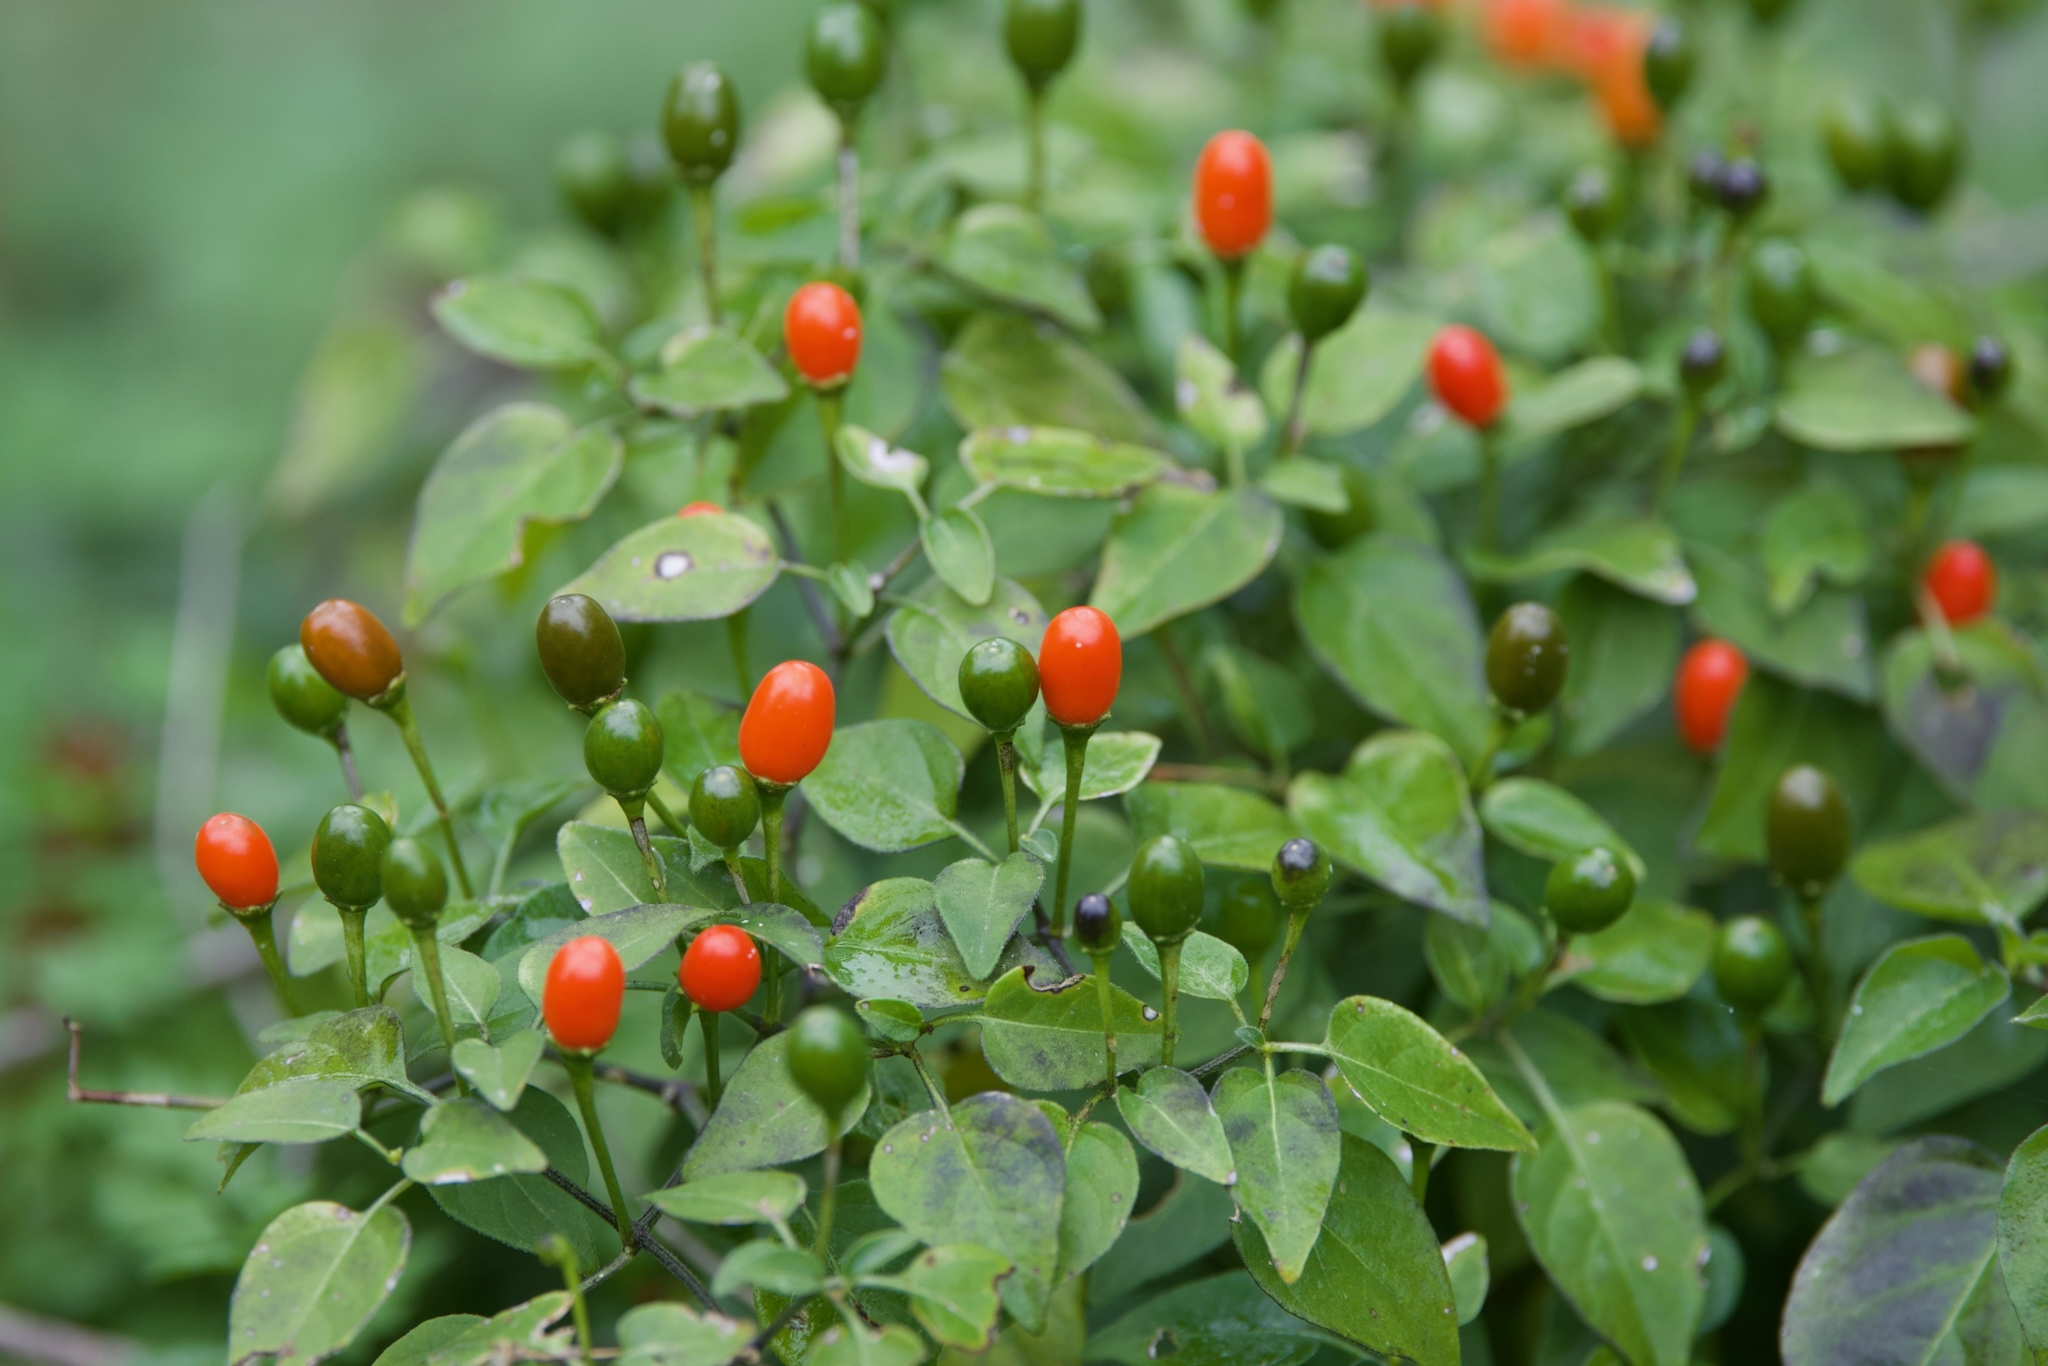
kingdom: Plantae
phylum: Tracheophyta
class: Magnoliopsida
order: Solanales
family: Solanaceae
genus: Capsicum
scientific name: Capsicum annuum
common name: Sweet pepper
